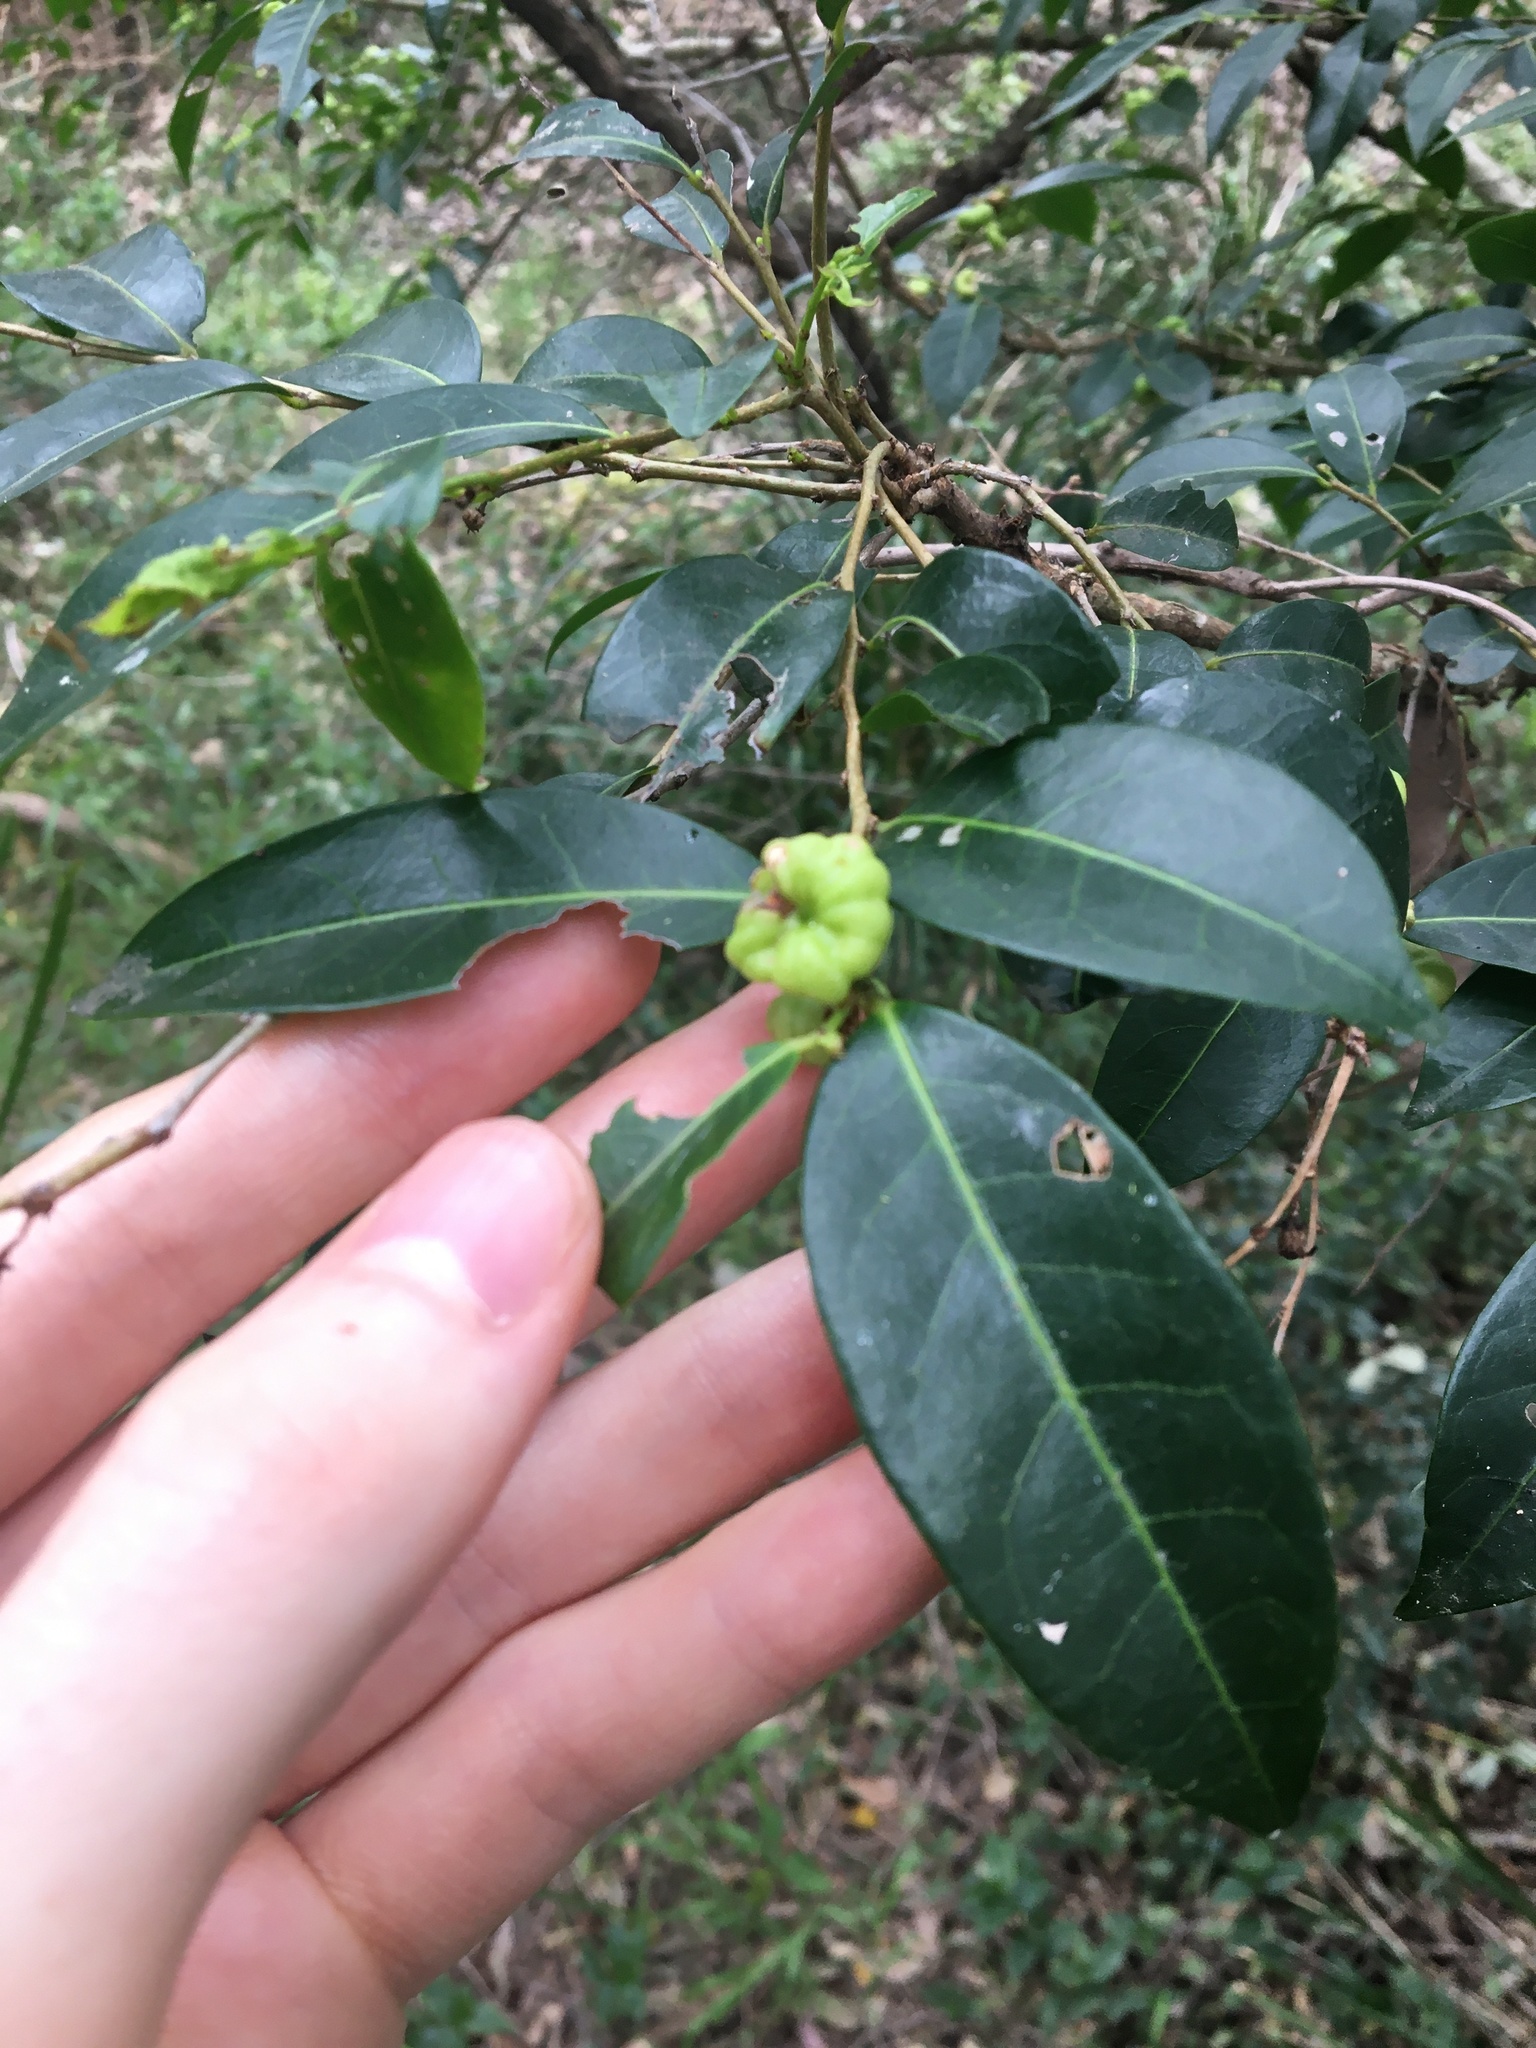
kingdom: Plantae
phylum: Tracheophyta
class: Magnoliopsida
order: Malpighiales
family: Phyllanthaceae
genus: Glochidion
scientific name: Glochidion ferdinandi
